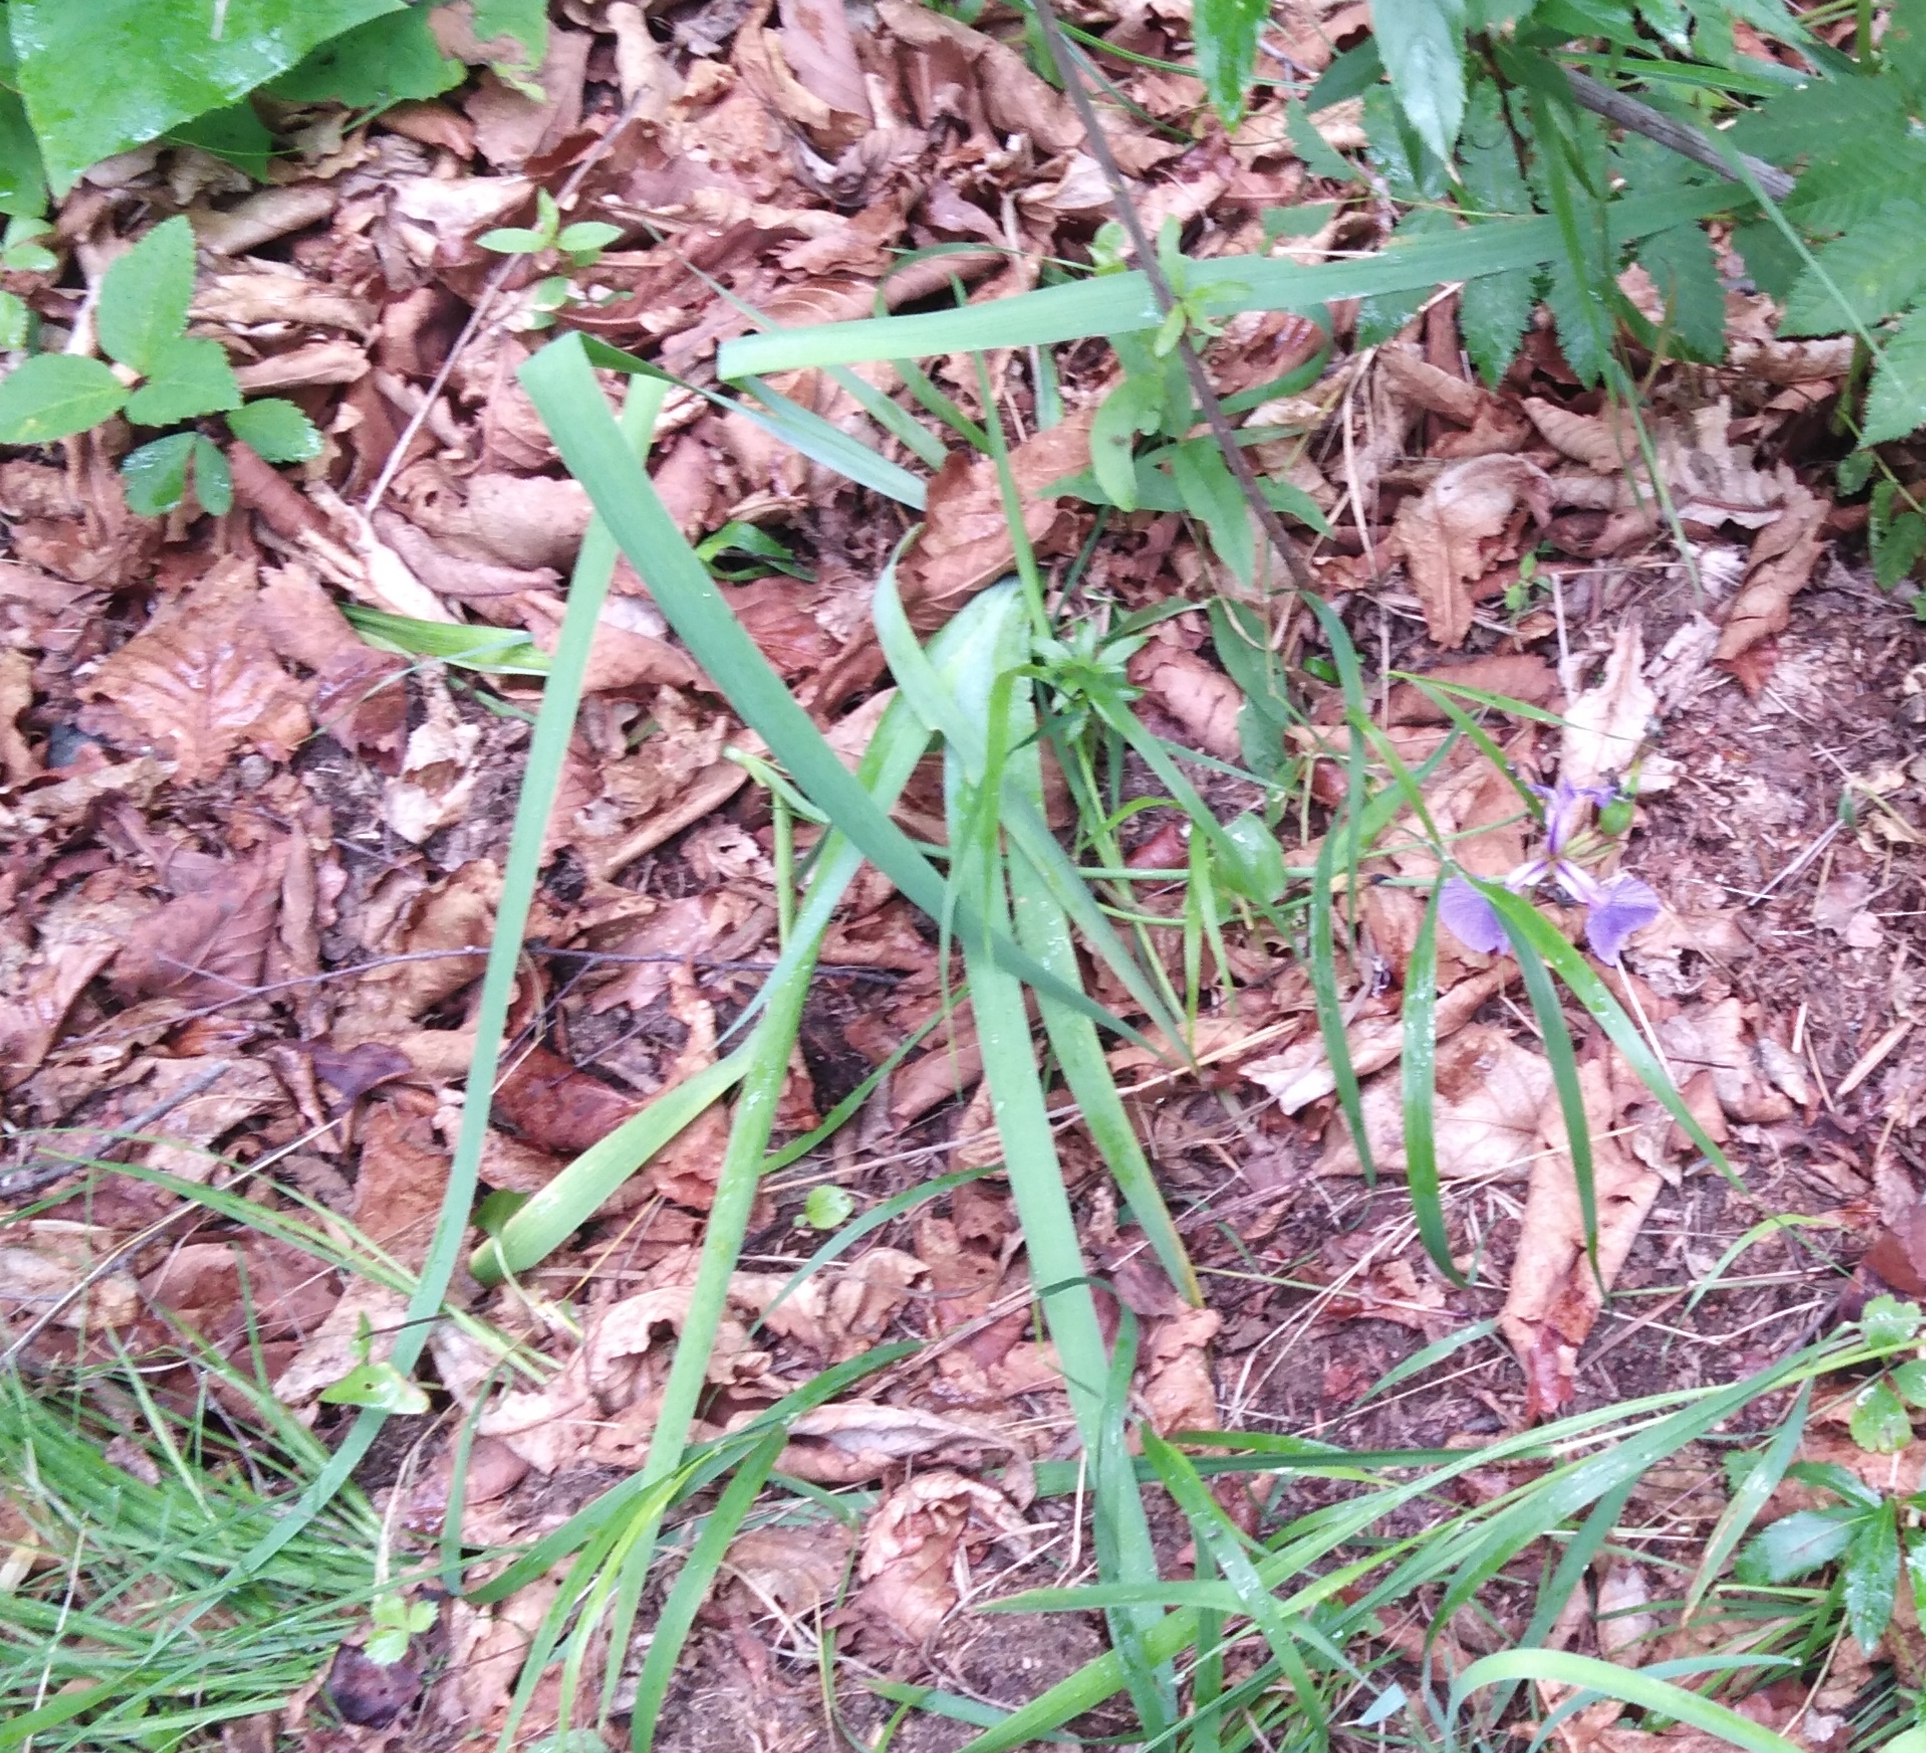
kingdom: Plantae
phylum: Tracheophyta
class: Liliopsida
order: Asparagales
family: Iridaceae
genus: Iris
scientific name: Iris setosa
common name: Arctic blue flag
